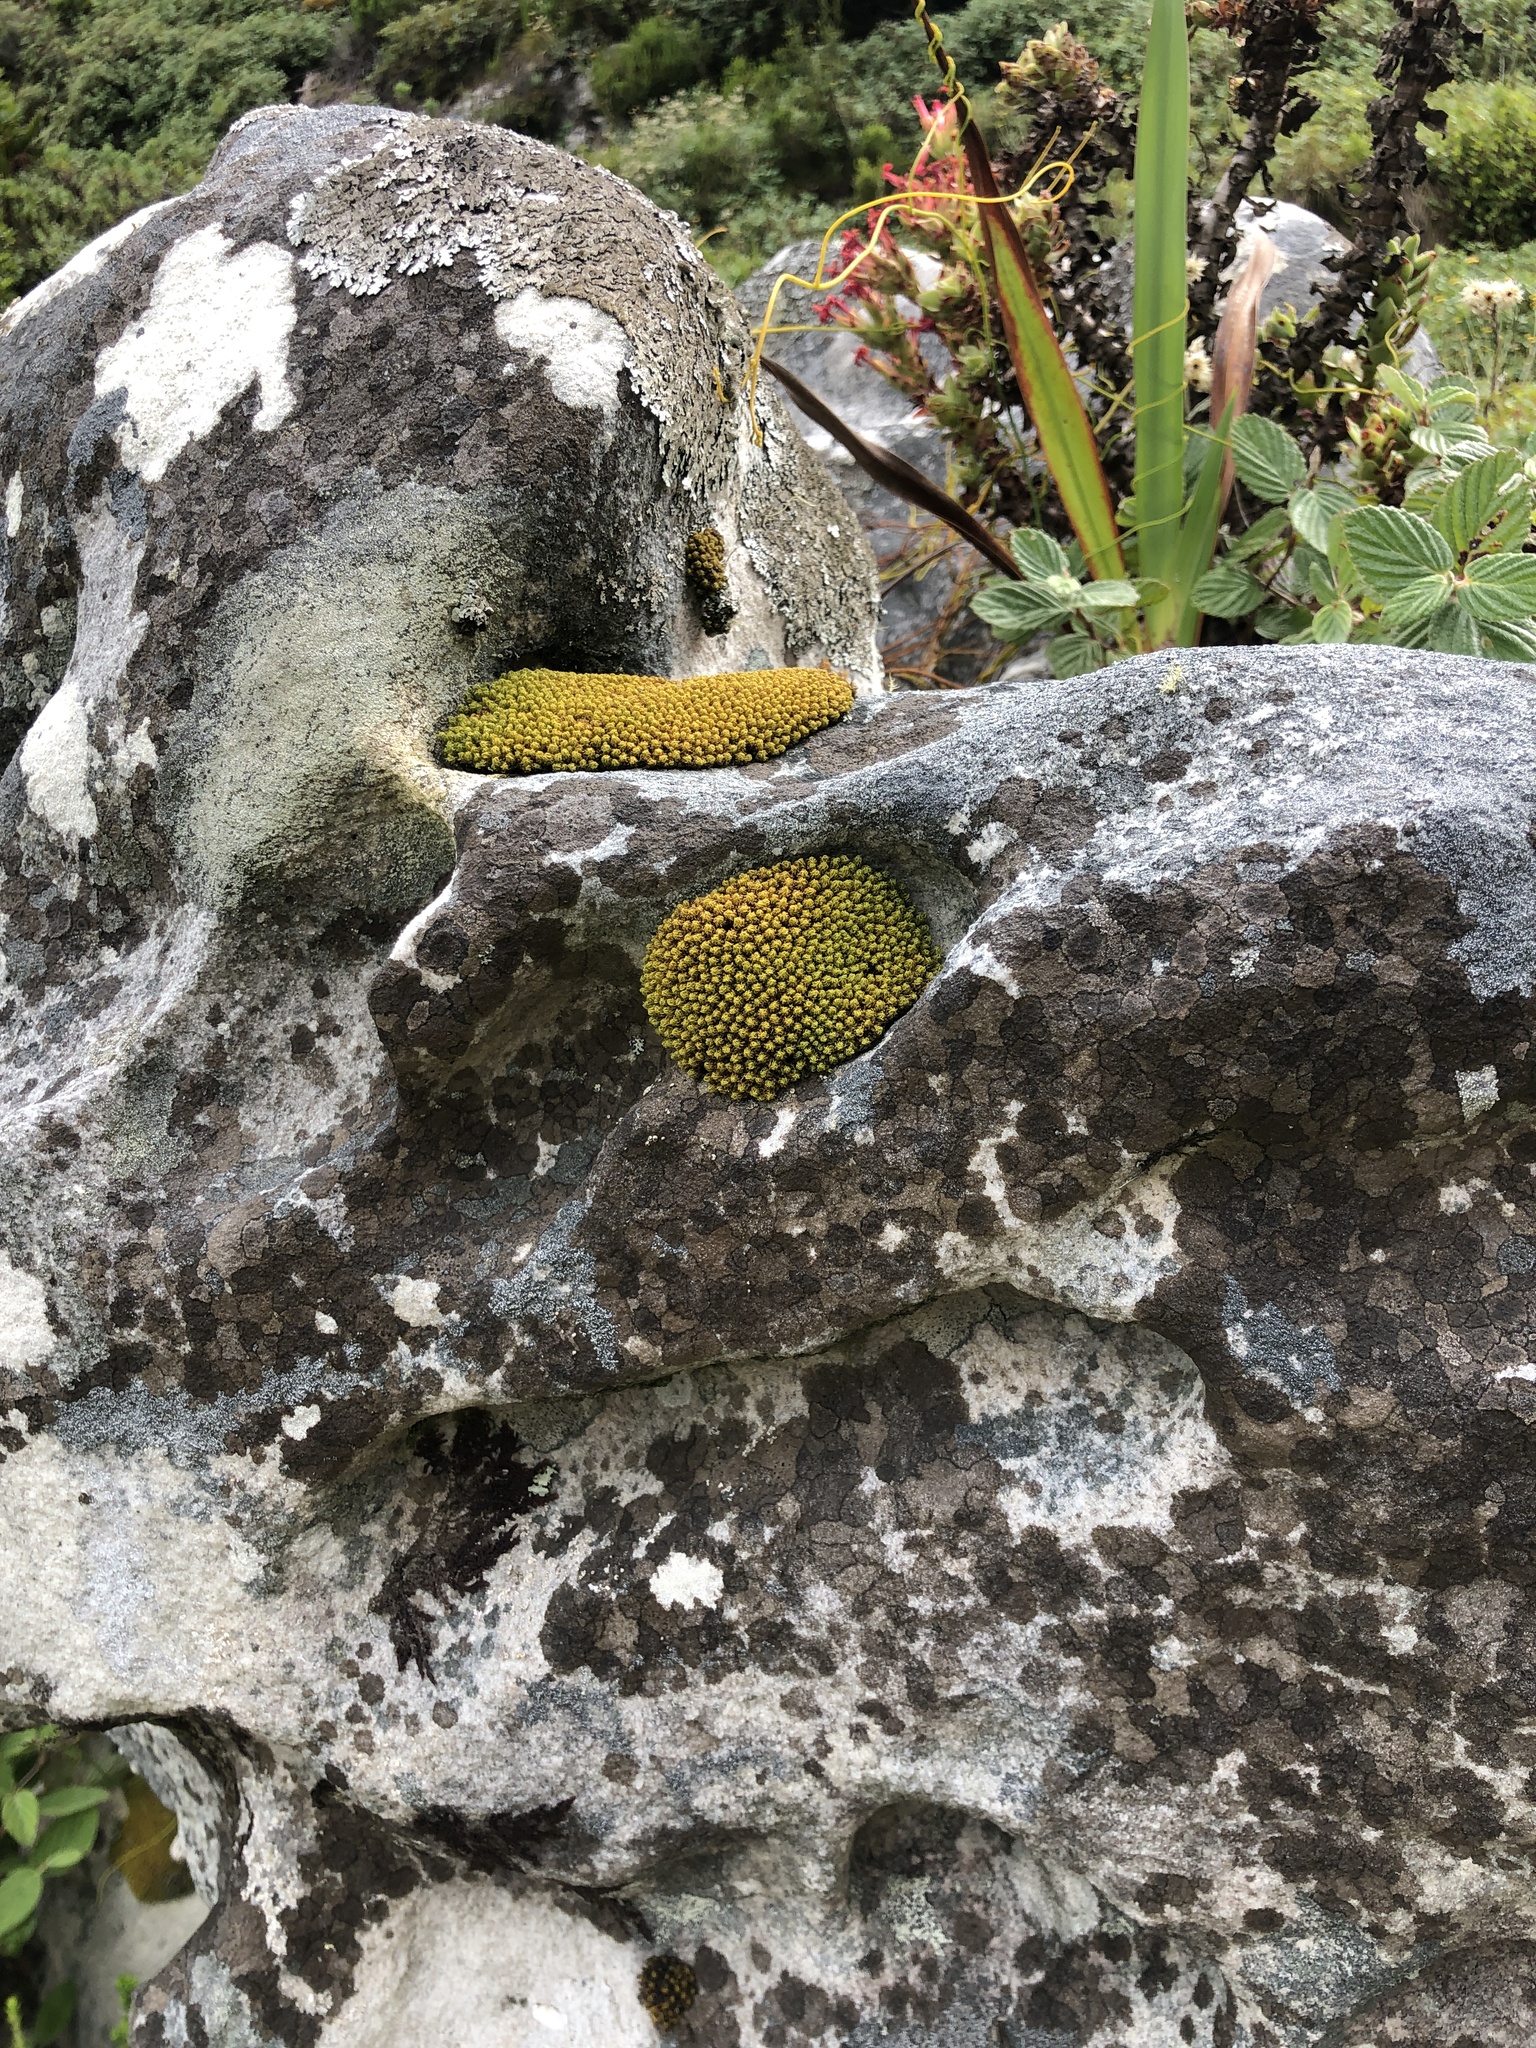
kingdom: Plantae
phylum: Bryophyta
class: Bryopsida
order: Dicranales
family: Hypodontiaceae
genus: Hypodontium
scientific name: Hypodontium pomiforme
